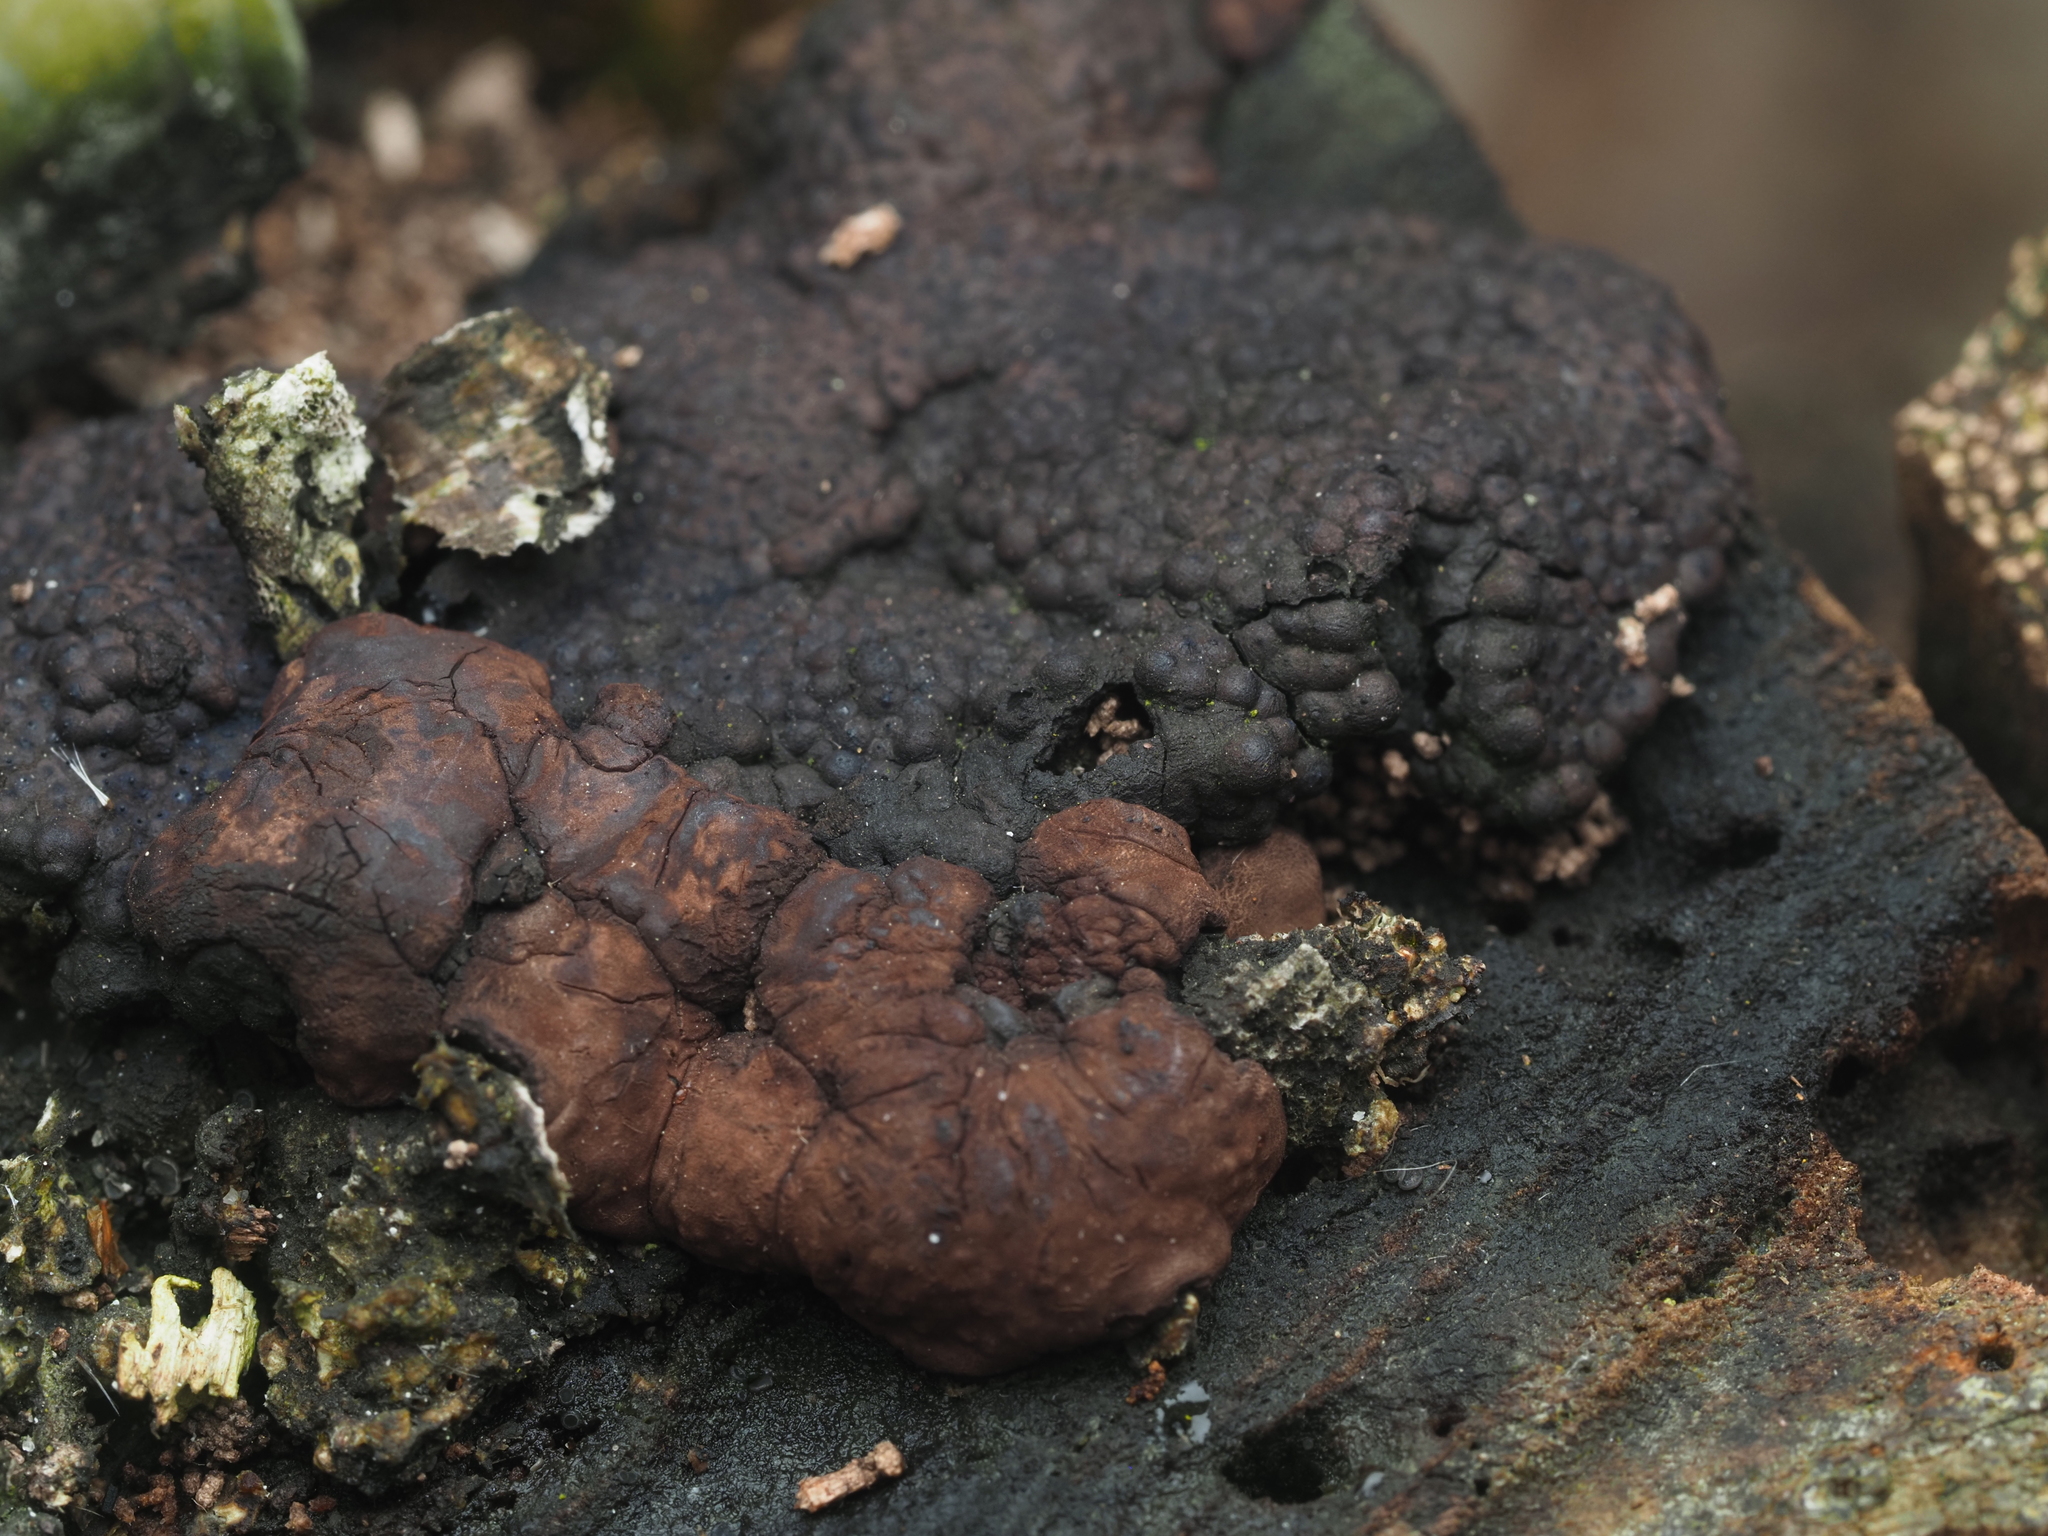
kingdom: Fungi
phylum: Ascomycota
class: Sordariomycetes
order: Xylariales
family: Hypoxylaceae
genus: Jackrogersella
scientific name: Jackrogersella multiformis
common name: Birch woodwart
